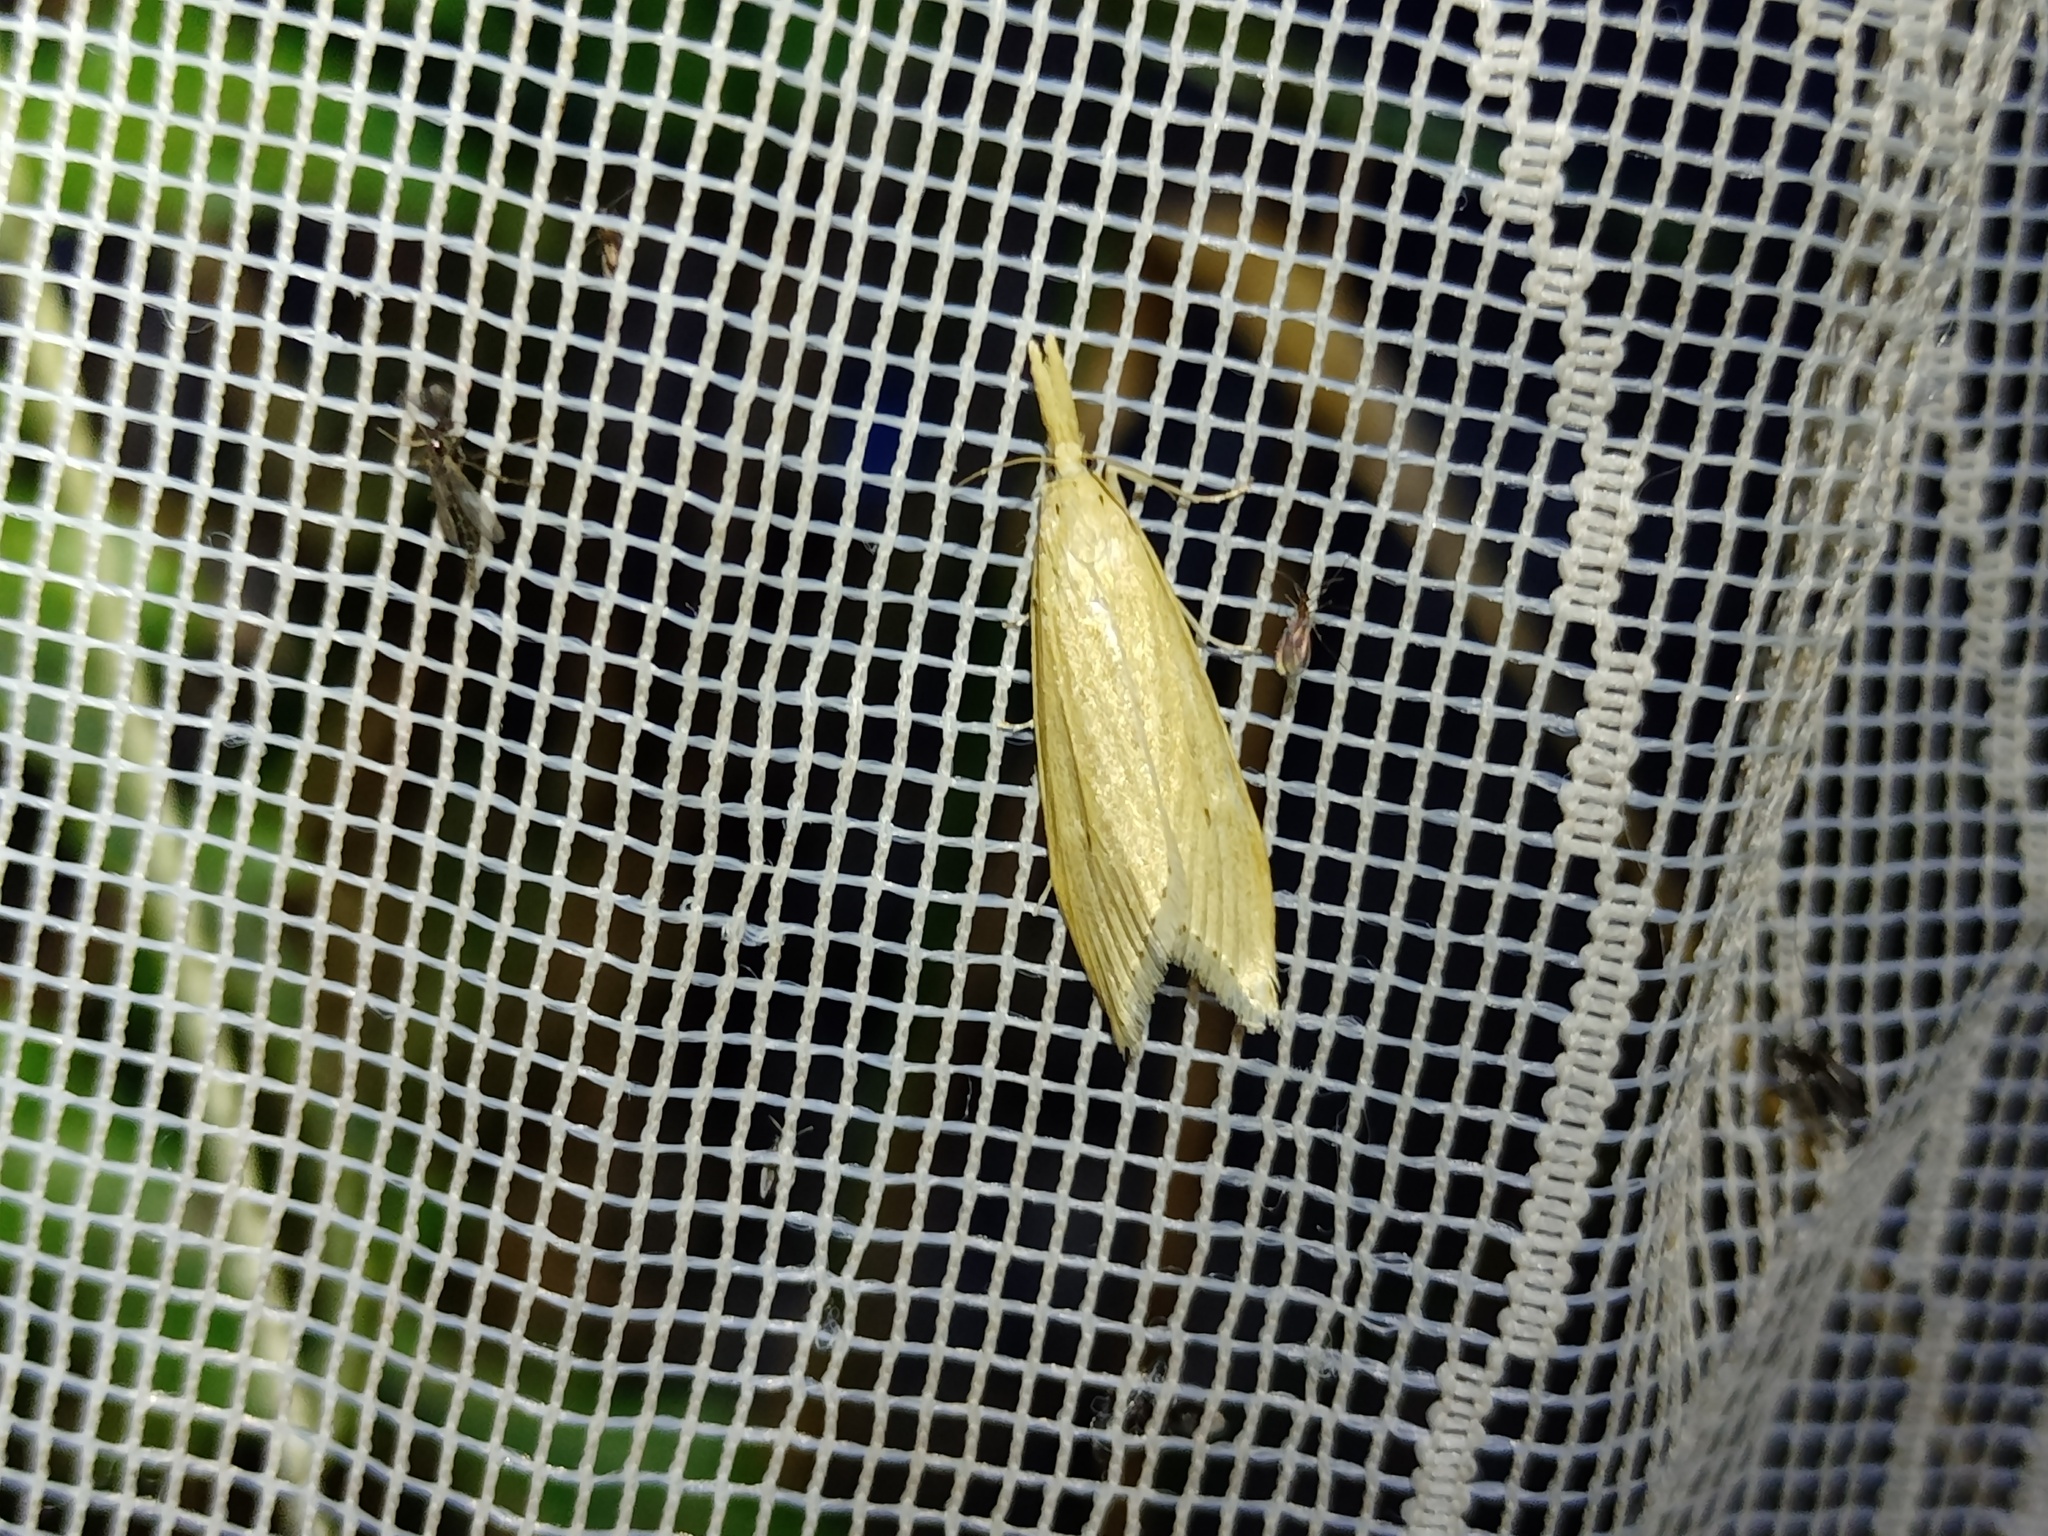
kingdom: Animalia
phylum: Arthropoda
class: Insecta
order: Lepidoptera
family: Crambidae
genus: Chilo
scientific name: Chilo phragmitella
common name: Reed veneer
